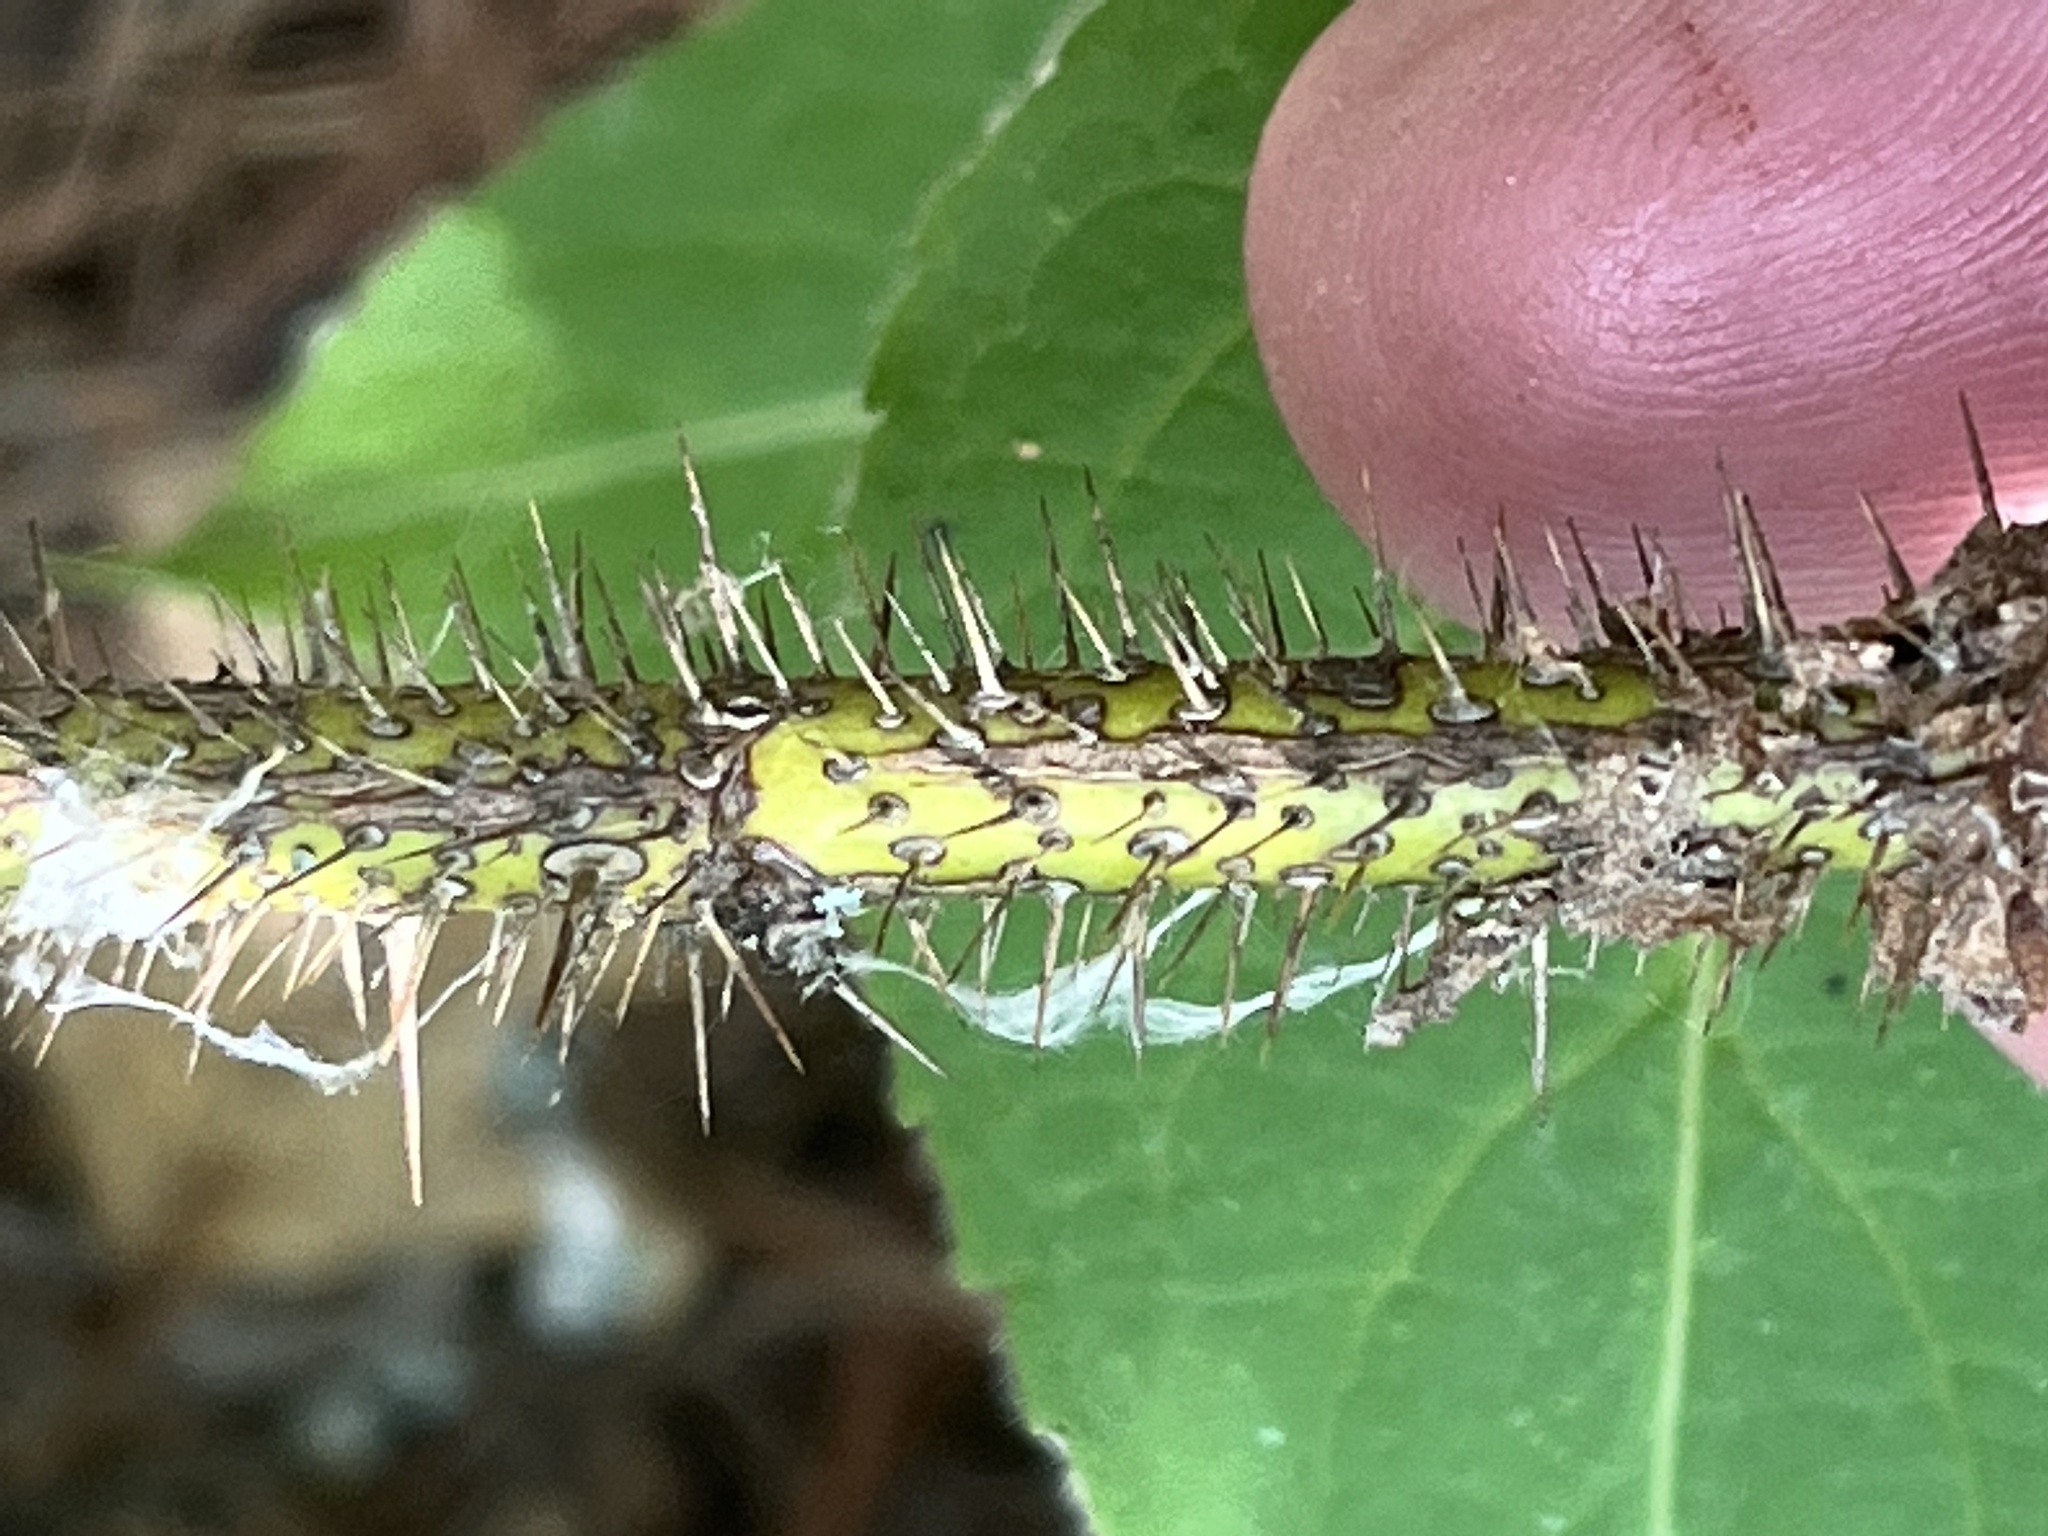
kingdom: Plantae
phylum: Tracheophyta
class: Magnoliopsida
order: Rosales
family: Rosaceae
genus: Rosa
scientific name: Rosa acicularis
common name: Prickly rose
